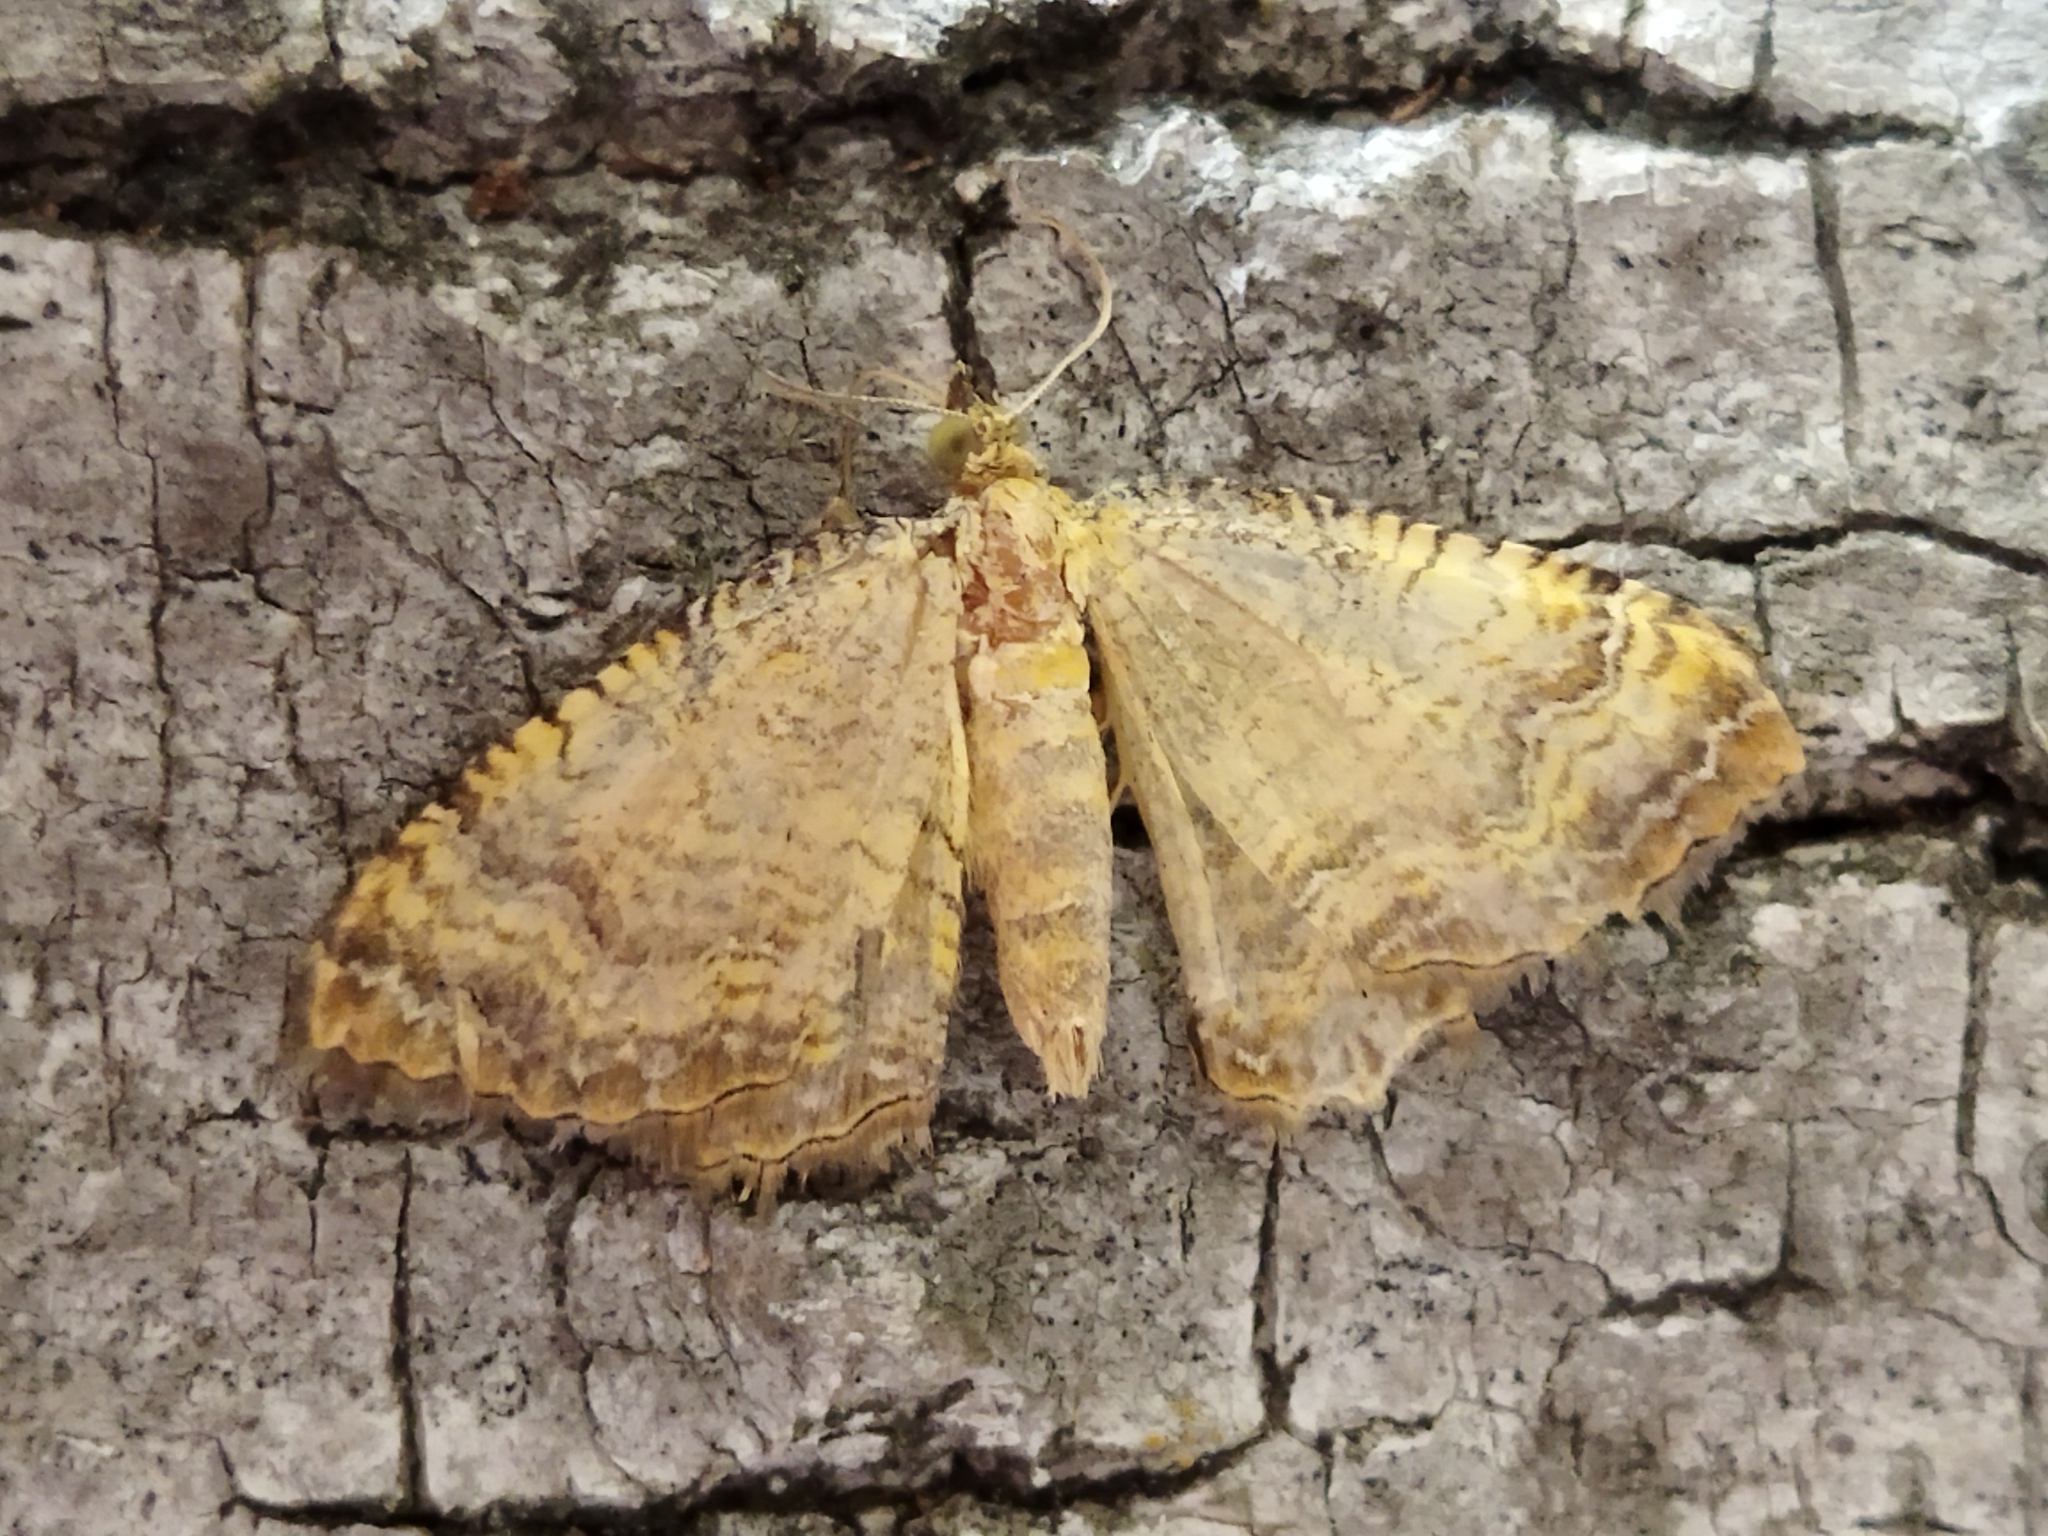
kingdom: Animalia
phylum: Arthropoda
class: Insecta
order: Lepidoptera
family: Geometridae
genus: Camptogramma
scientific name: Camptogramma bilineata
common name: Yellow shell
